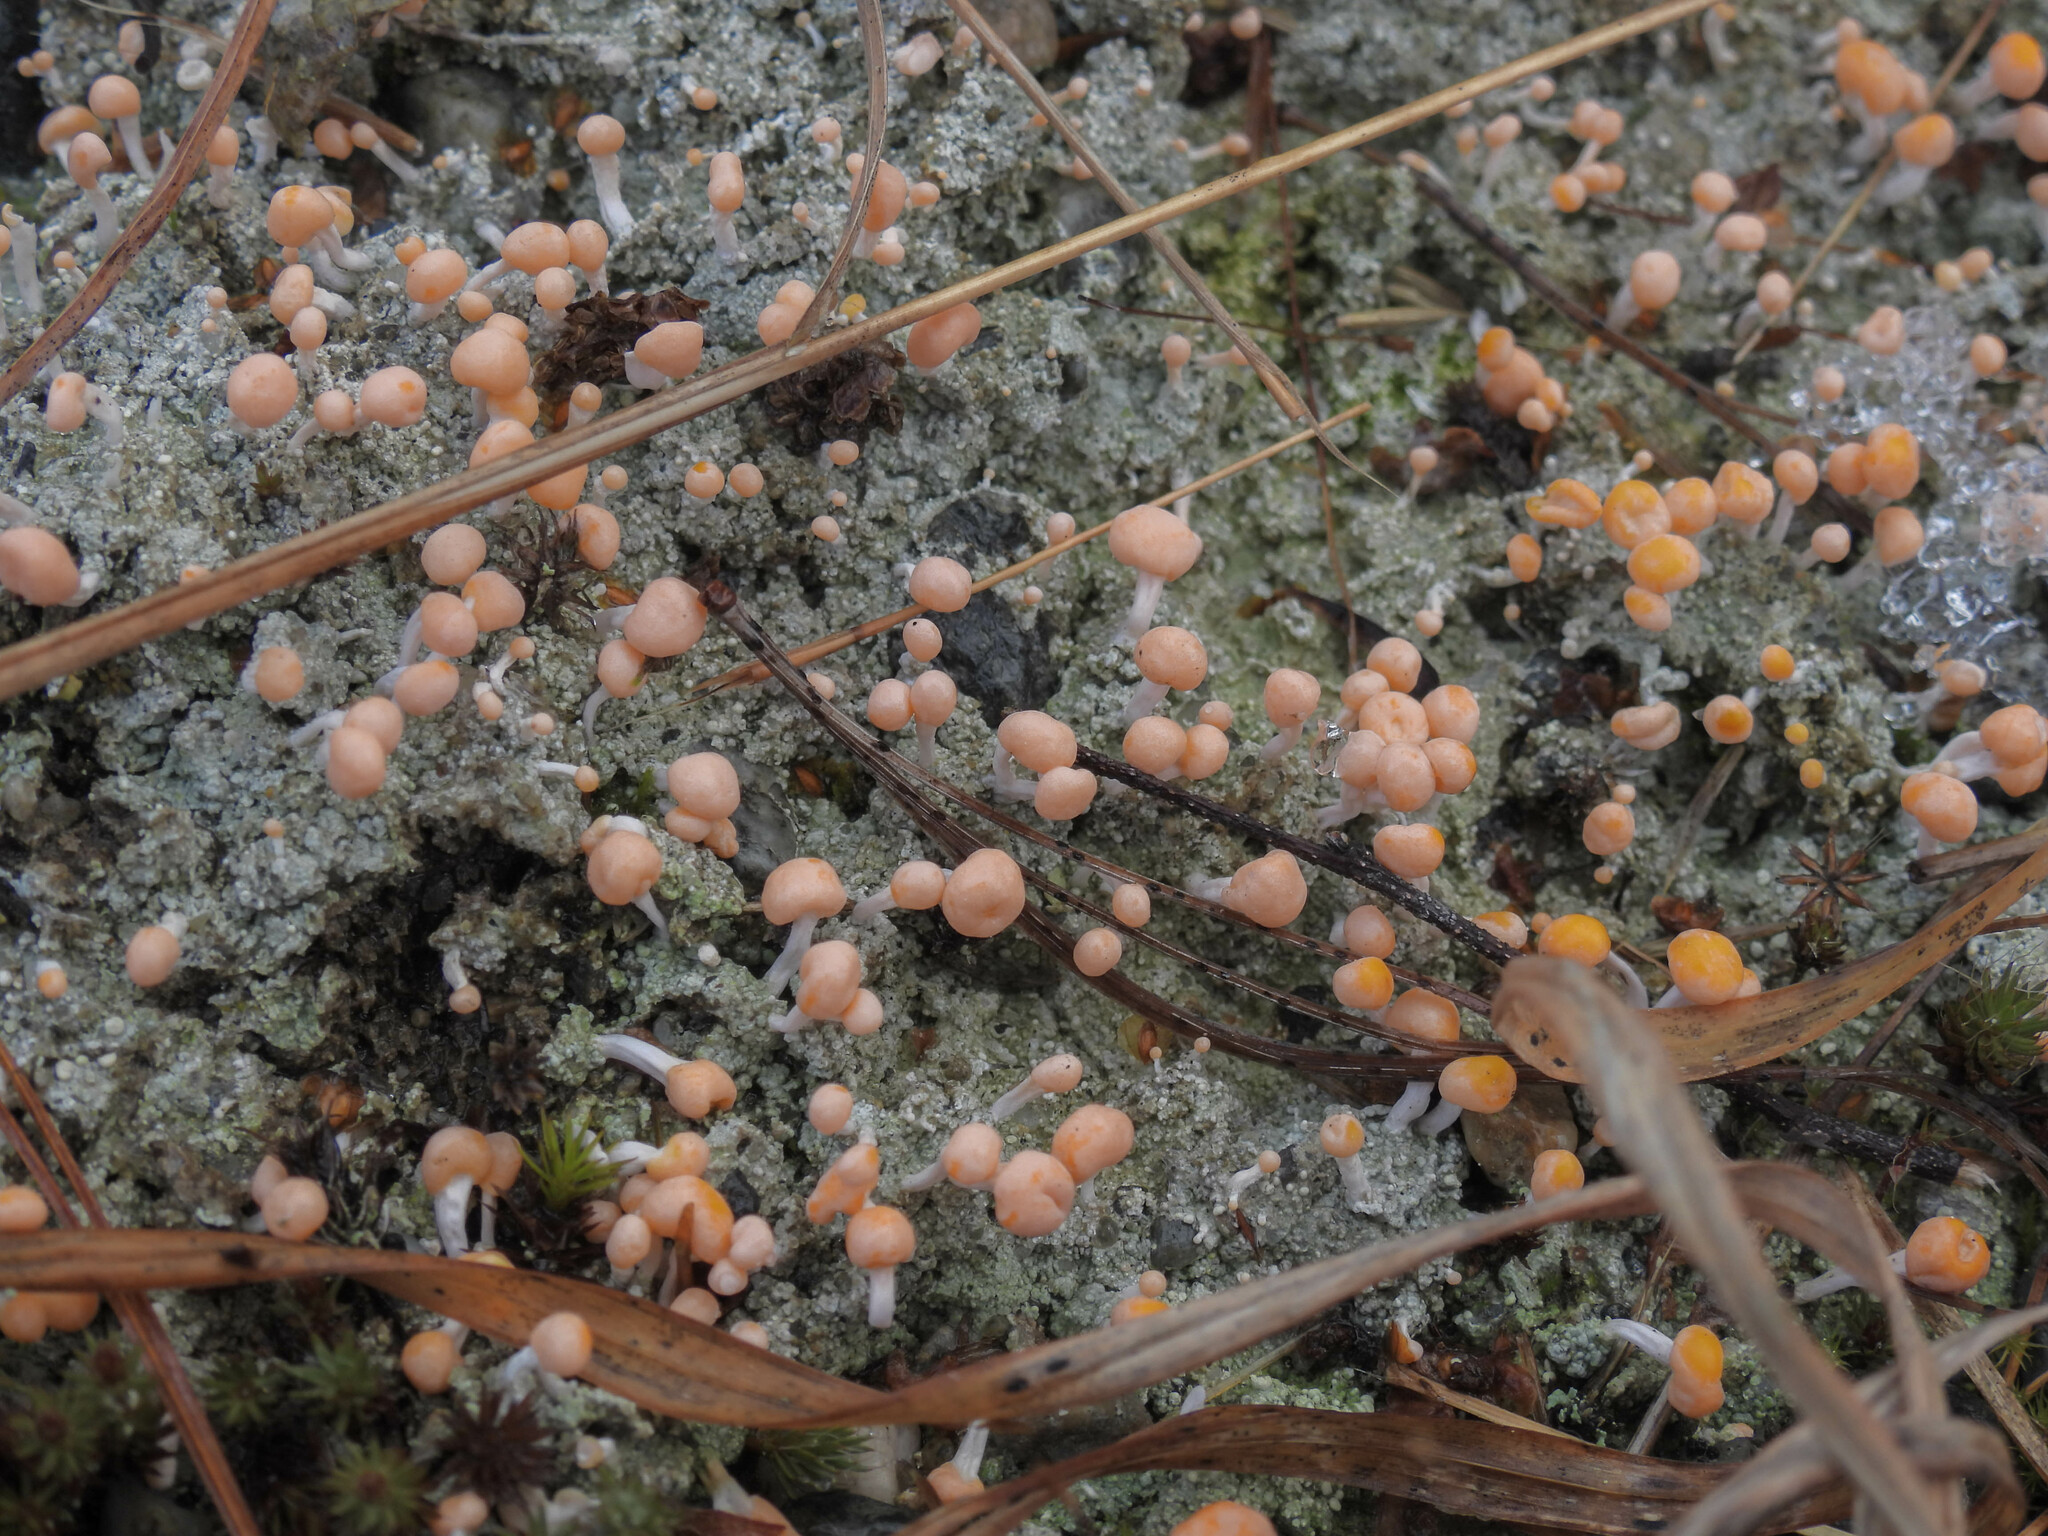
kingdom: Fungi
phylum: Ascomycota
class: Lecanoromycetes
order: Pertusariales
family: Icmadophilaceae
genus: Dibaeis
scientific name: Dibaeis baeomyces
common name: Pink earth lichen
